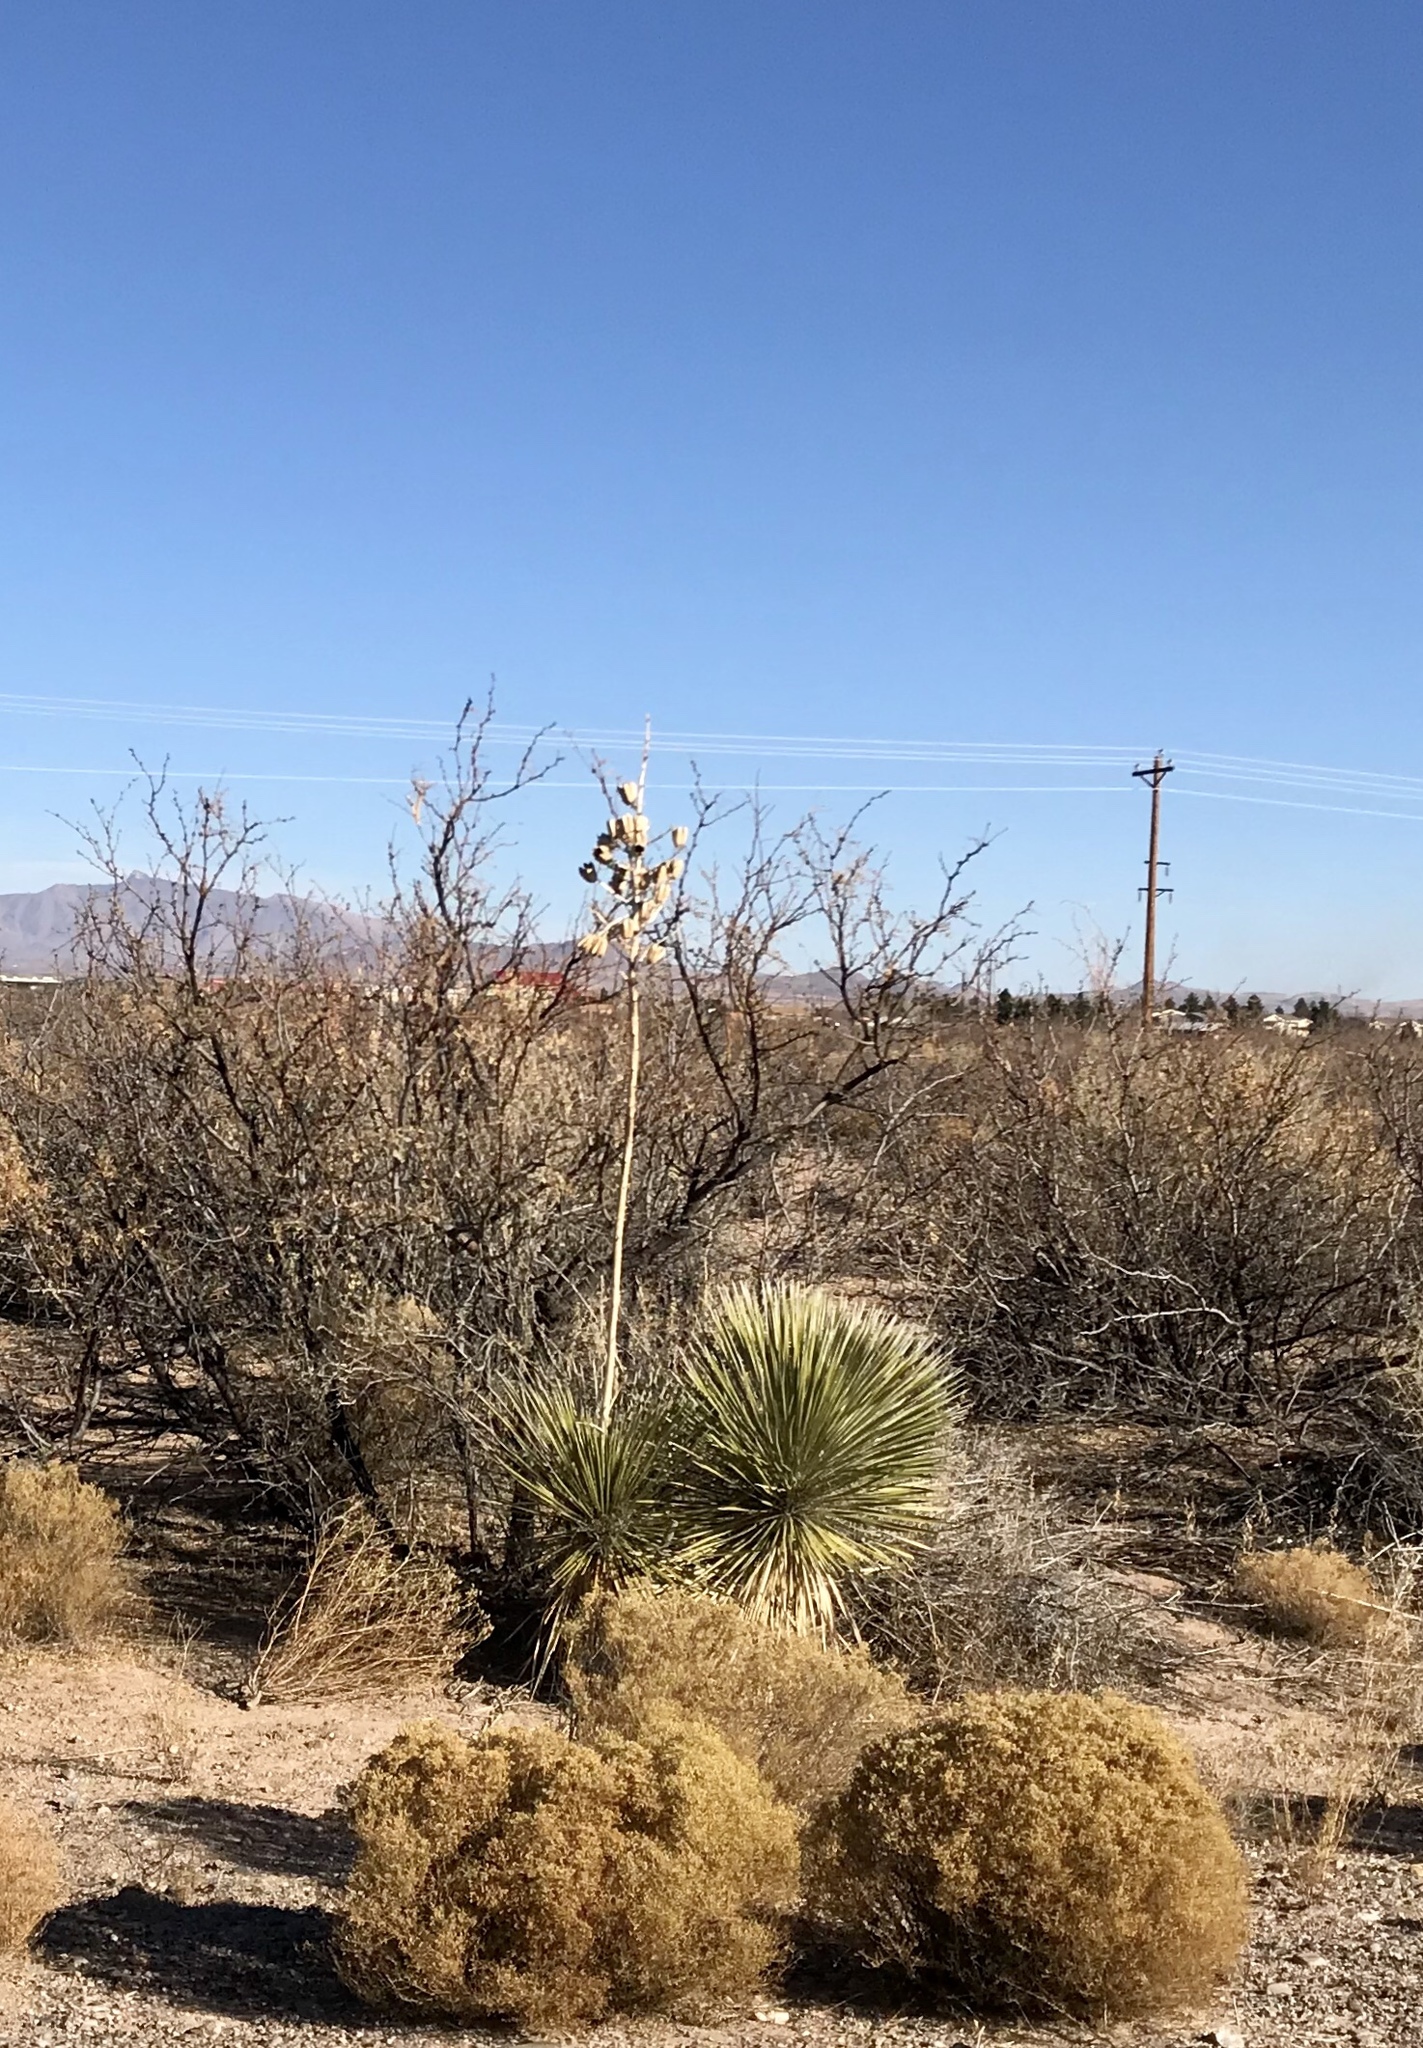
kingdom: Plantae
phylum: Tracheophyta
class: Liliopsida
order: Asparagales
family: Asparagaceae
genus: Yucca
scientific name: Yucca elata
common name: Palmella
